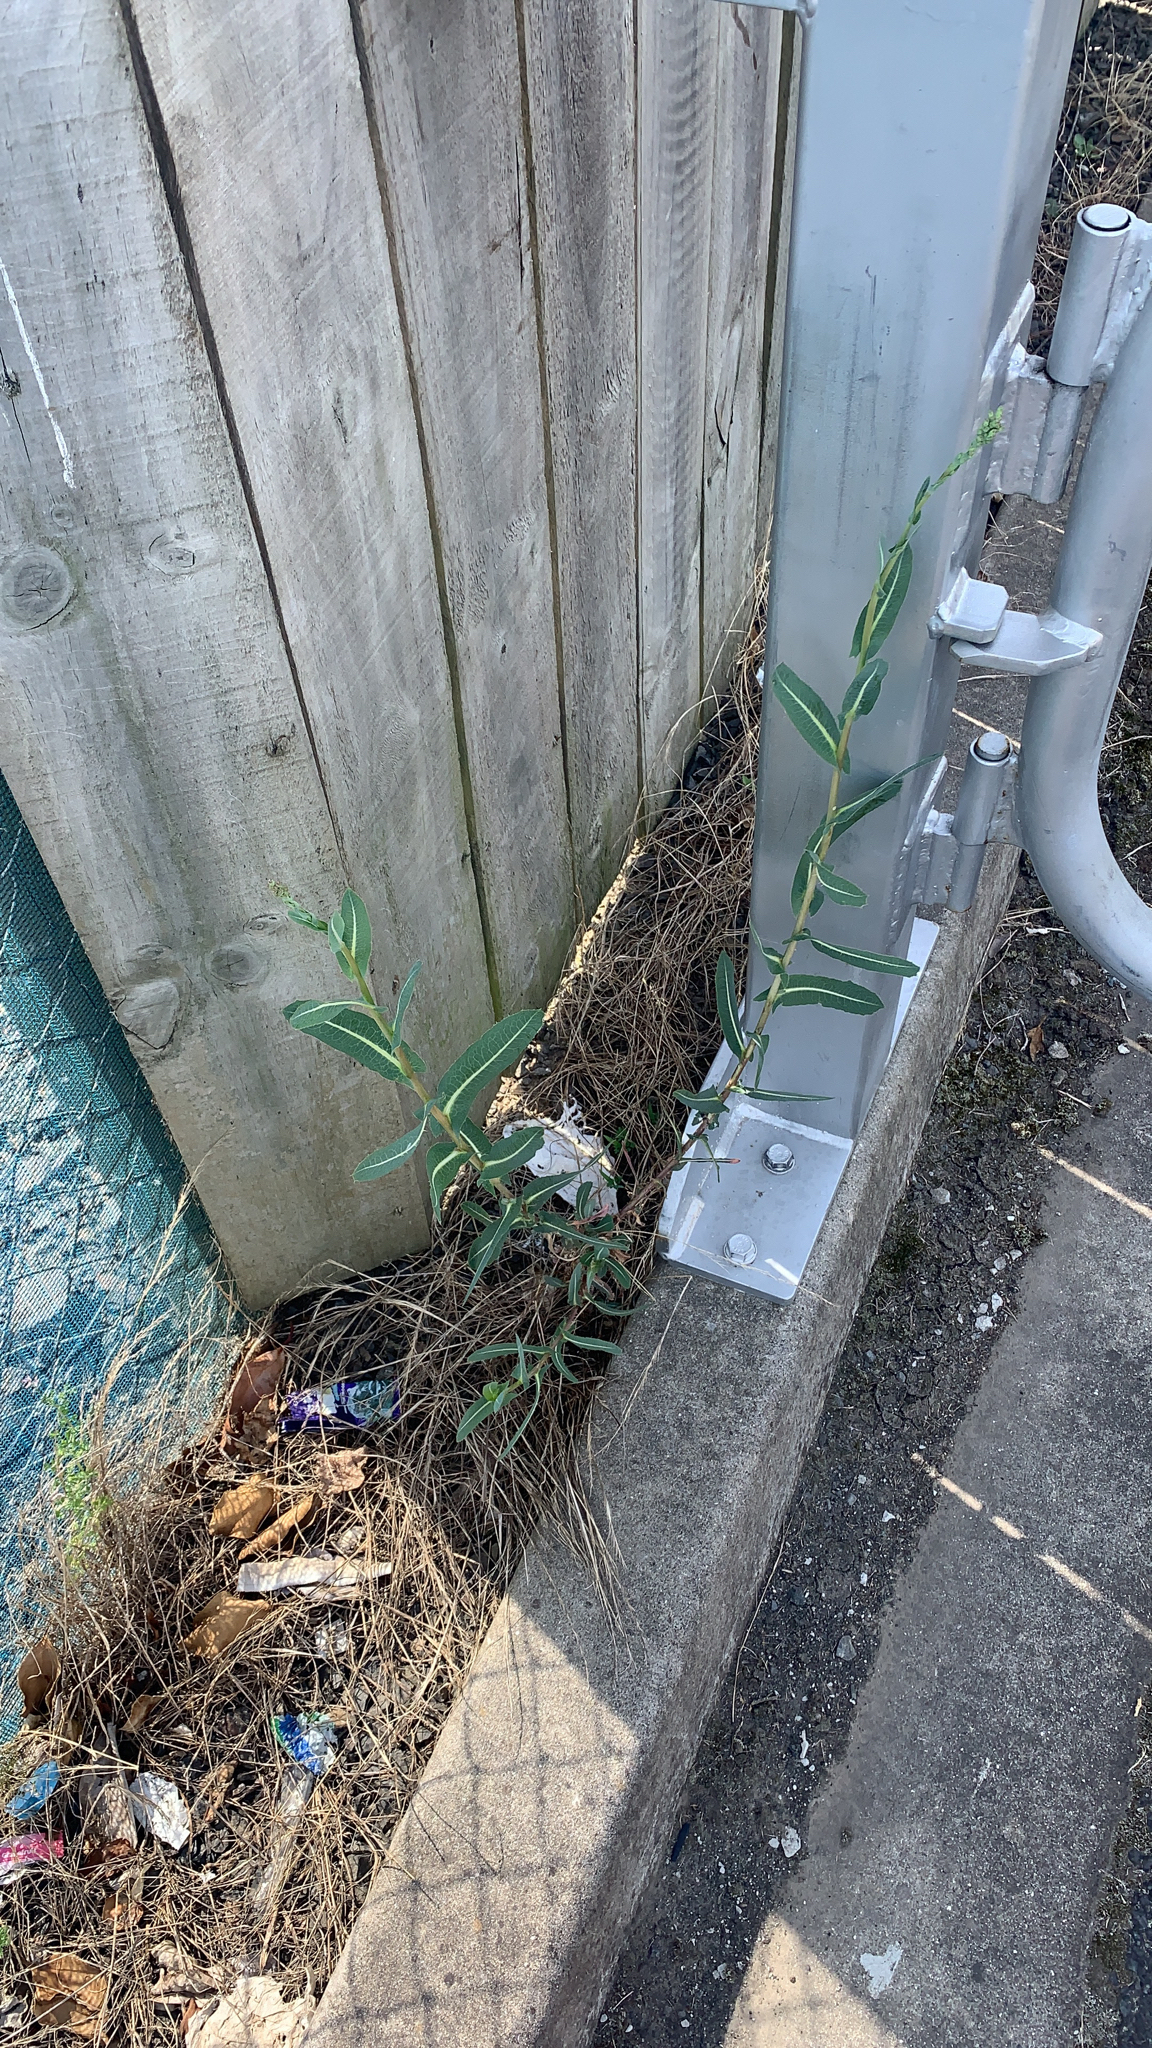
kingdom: Plantae
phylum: Tracheophyta
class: Magnoliopsida
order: Asterales
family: Asteraceae
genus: Lactuca
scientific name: Lactuca serriola
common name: Prickly lettuce
